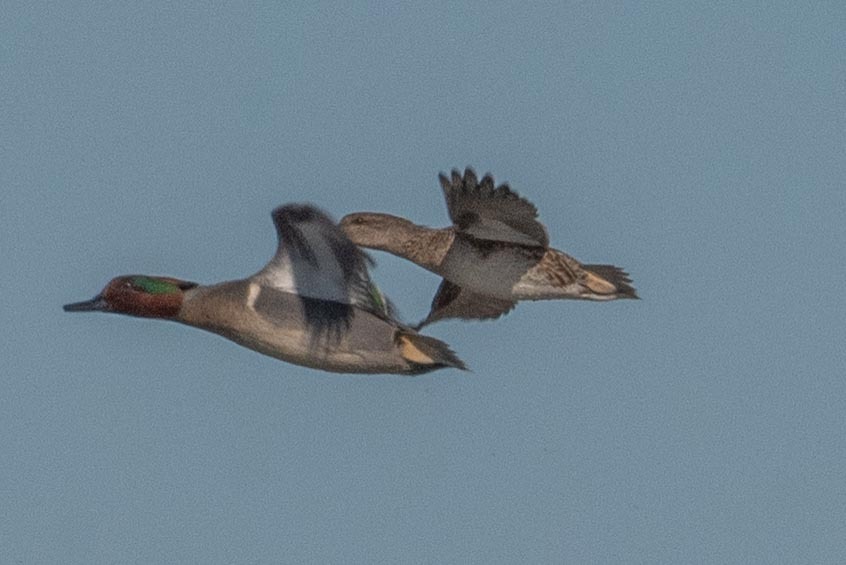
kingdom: Animalia
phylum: Chordata
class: Aves
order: Anseriformes
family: Anatidae
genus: Anas
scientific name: Anas crecca
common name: Eurasian teal
